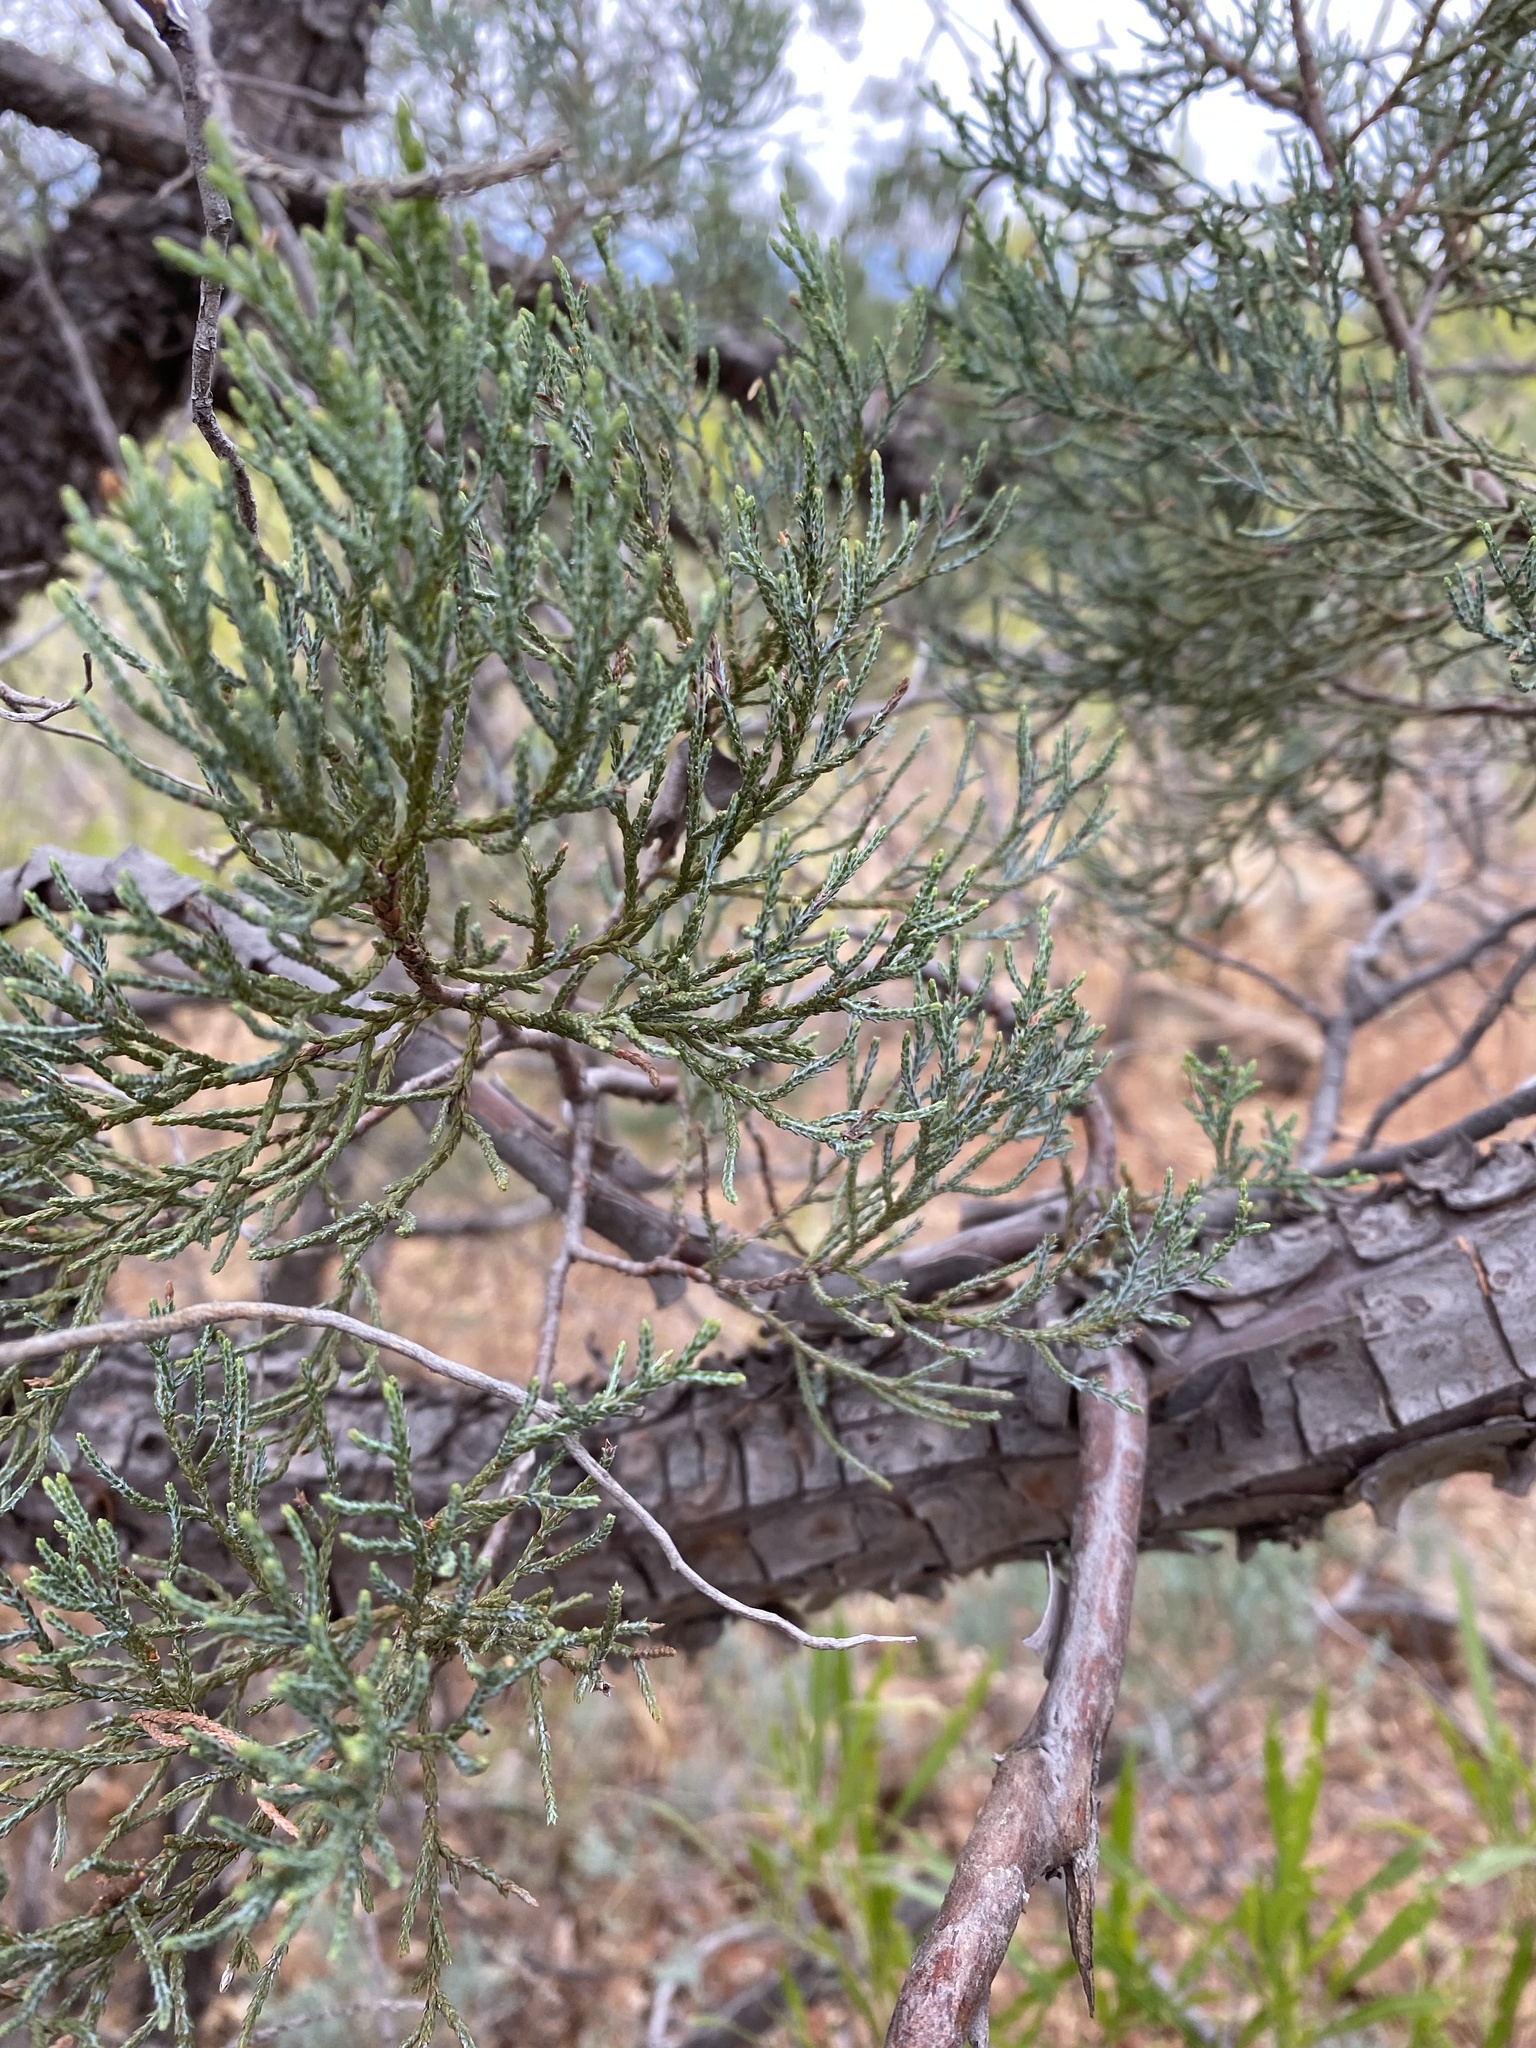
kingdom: Plantae
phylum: Tracheophyta
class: Pinopsida
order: Pinales
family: Cupressaceae
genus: Juniperus
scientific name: Juniperus deppeana
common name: Alligator juniper
